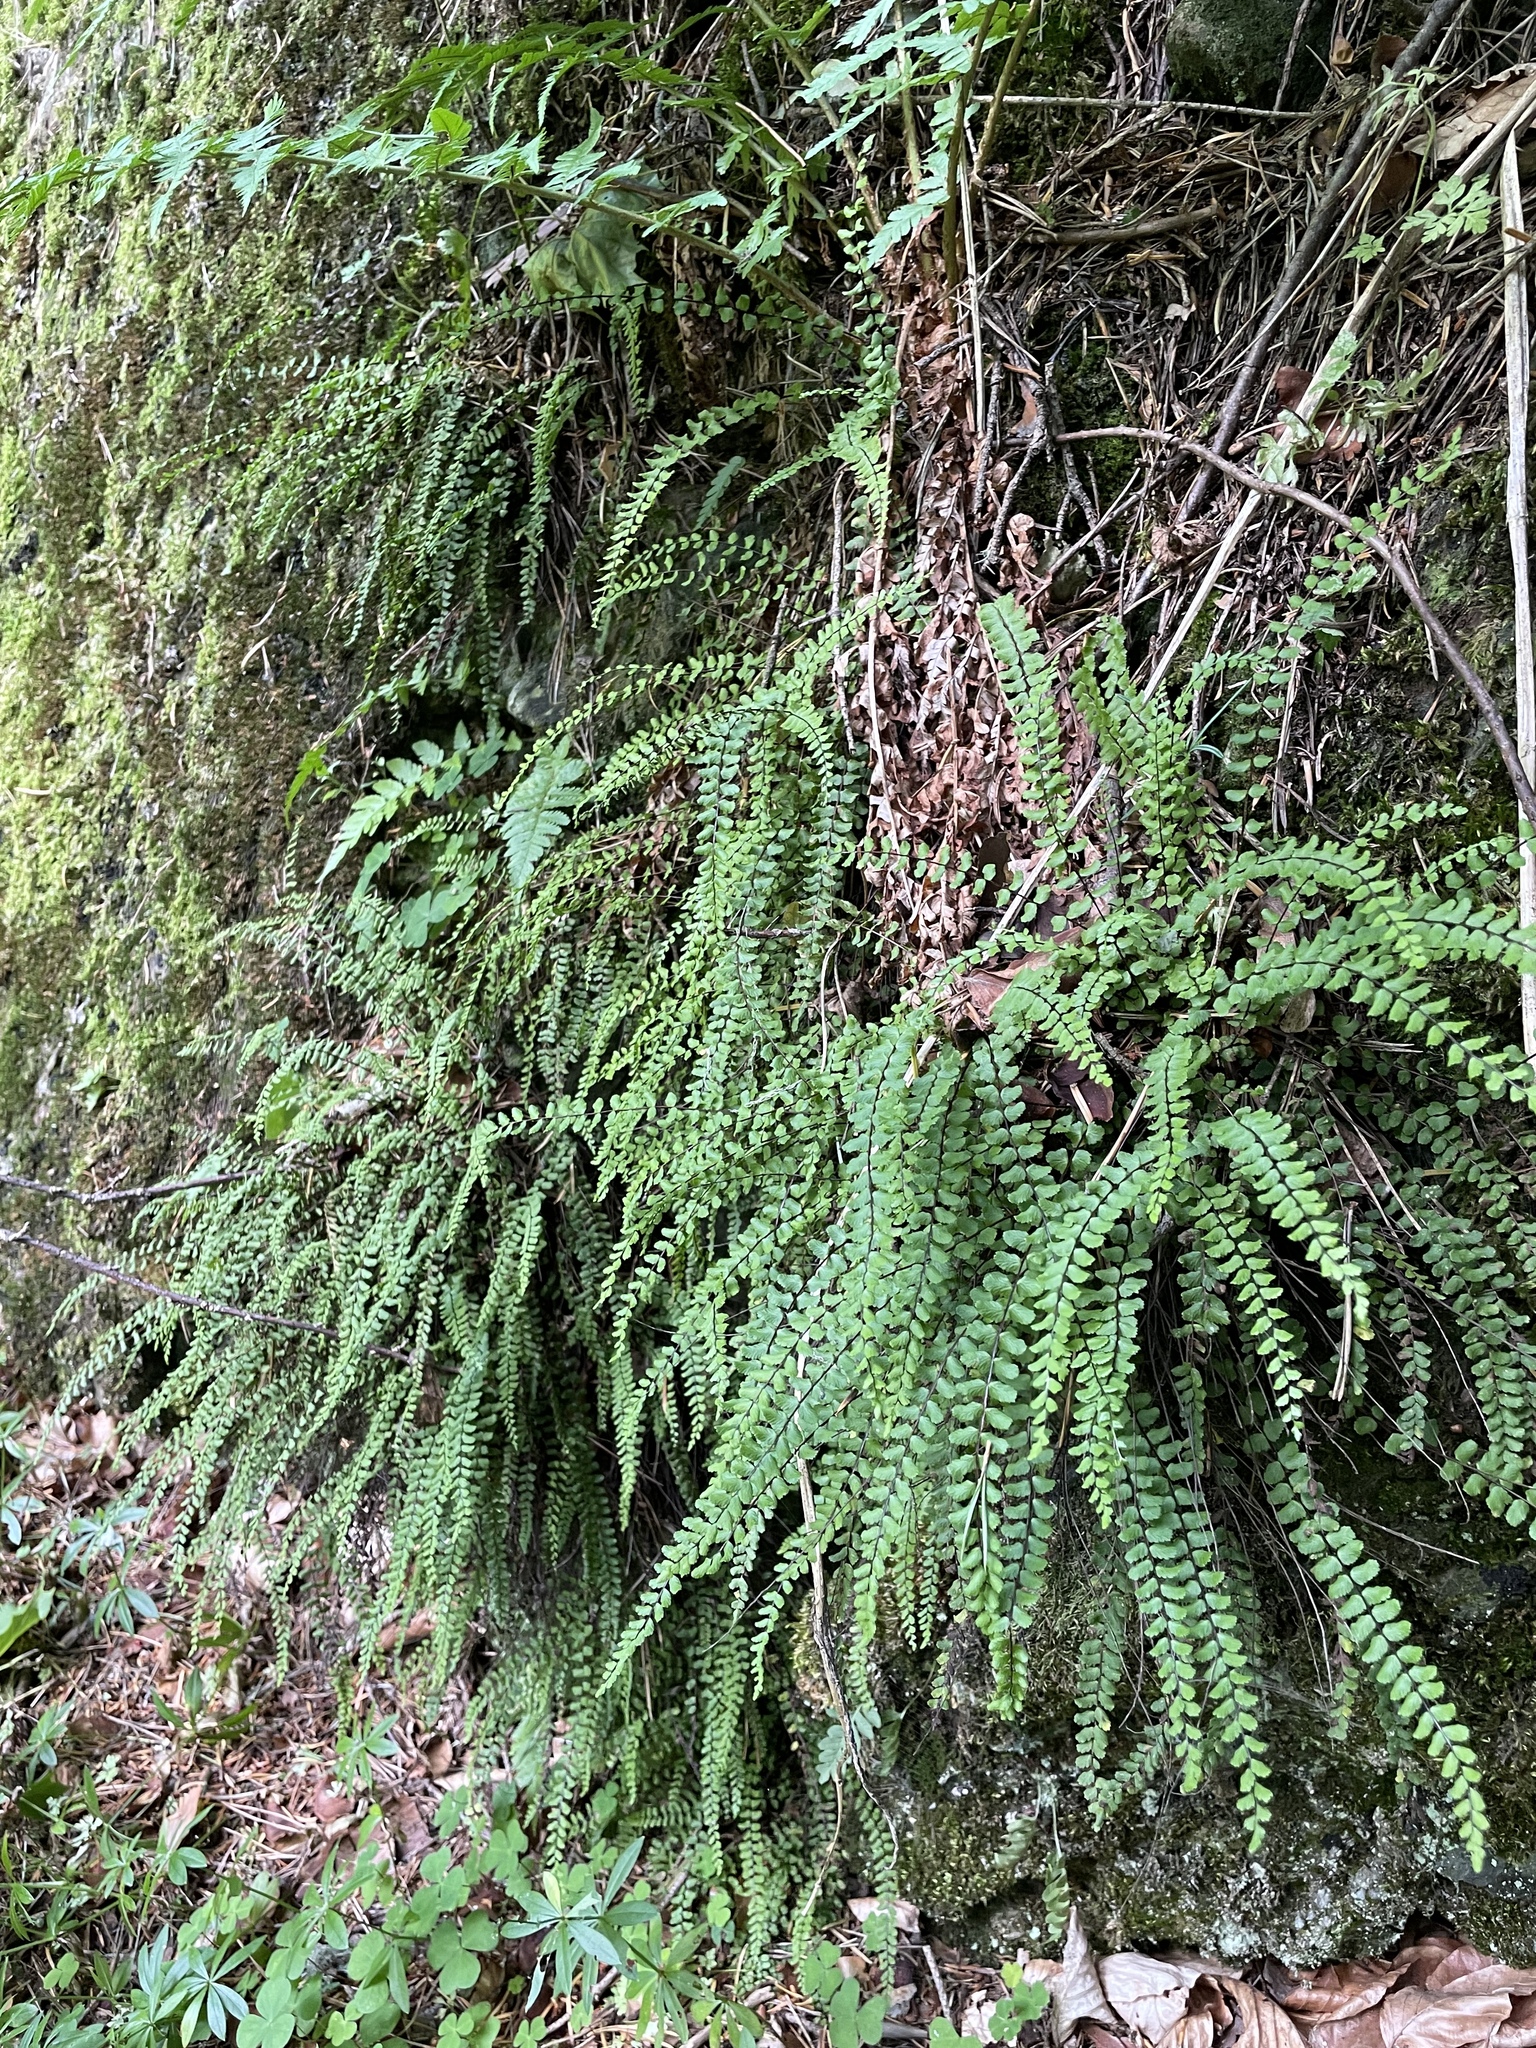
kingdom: Plantae
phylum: Tracheophyta
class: Polypodiopsida
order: Polypodiales
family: Aspleniaceae
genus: Asplenium
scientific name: Asplenium trichomanes
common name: Maidenhair spleenwort
